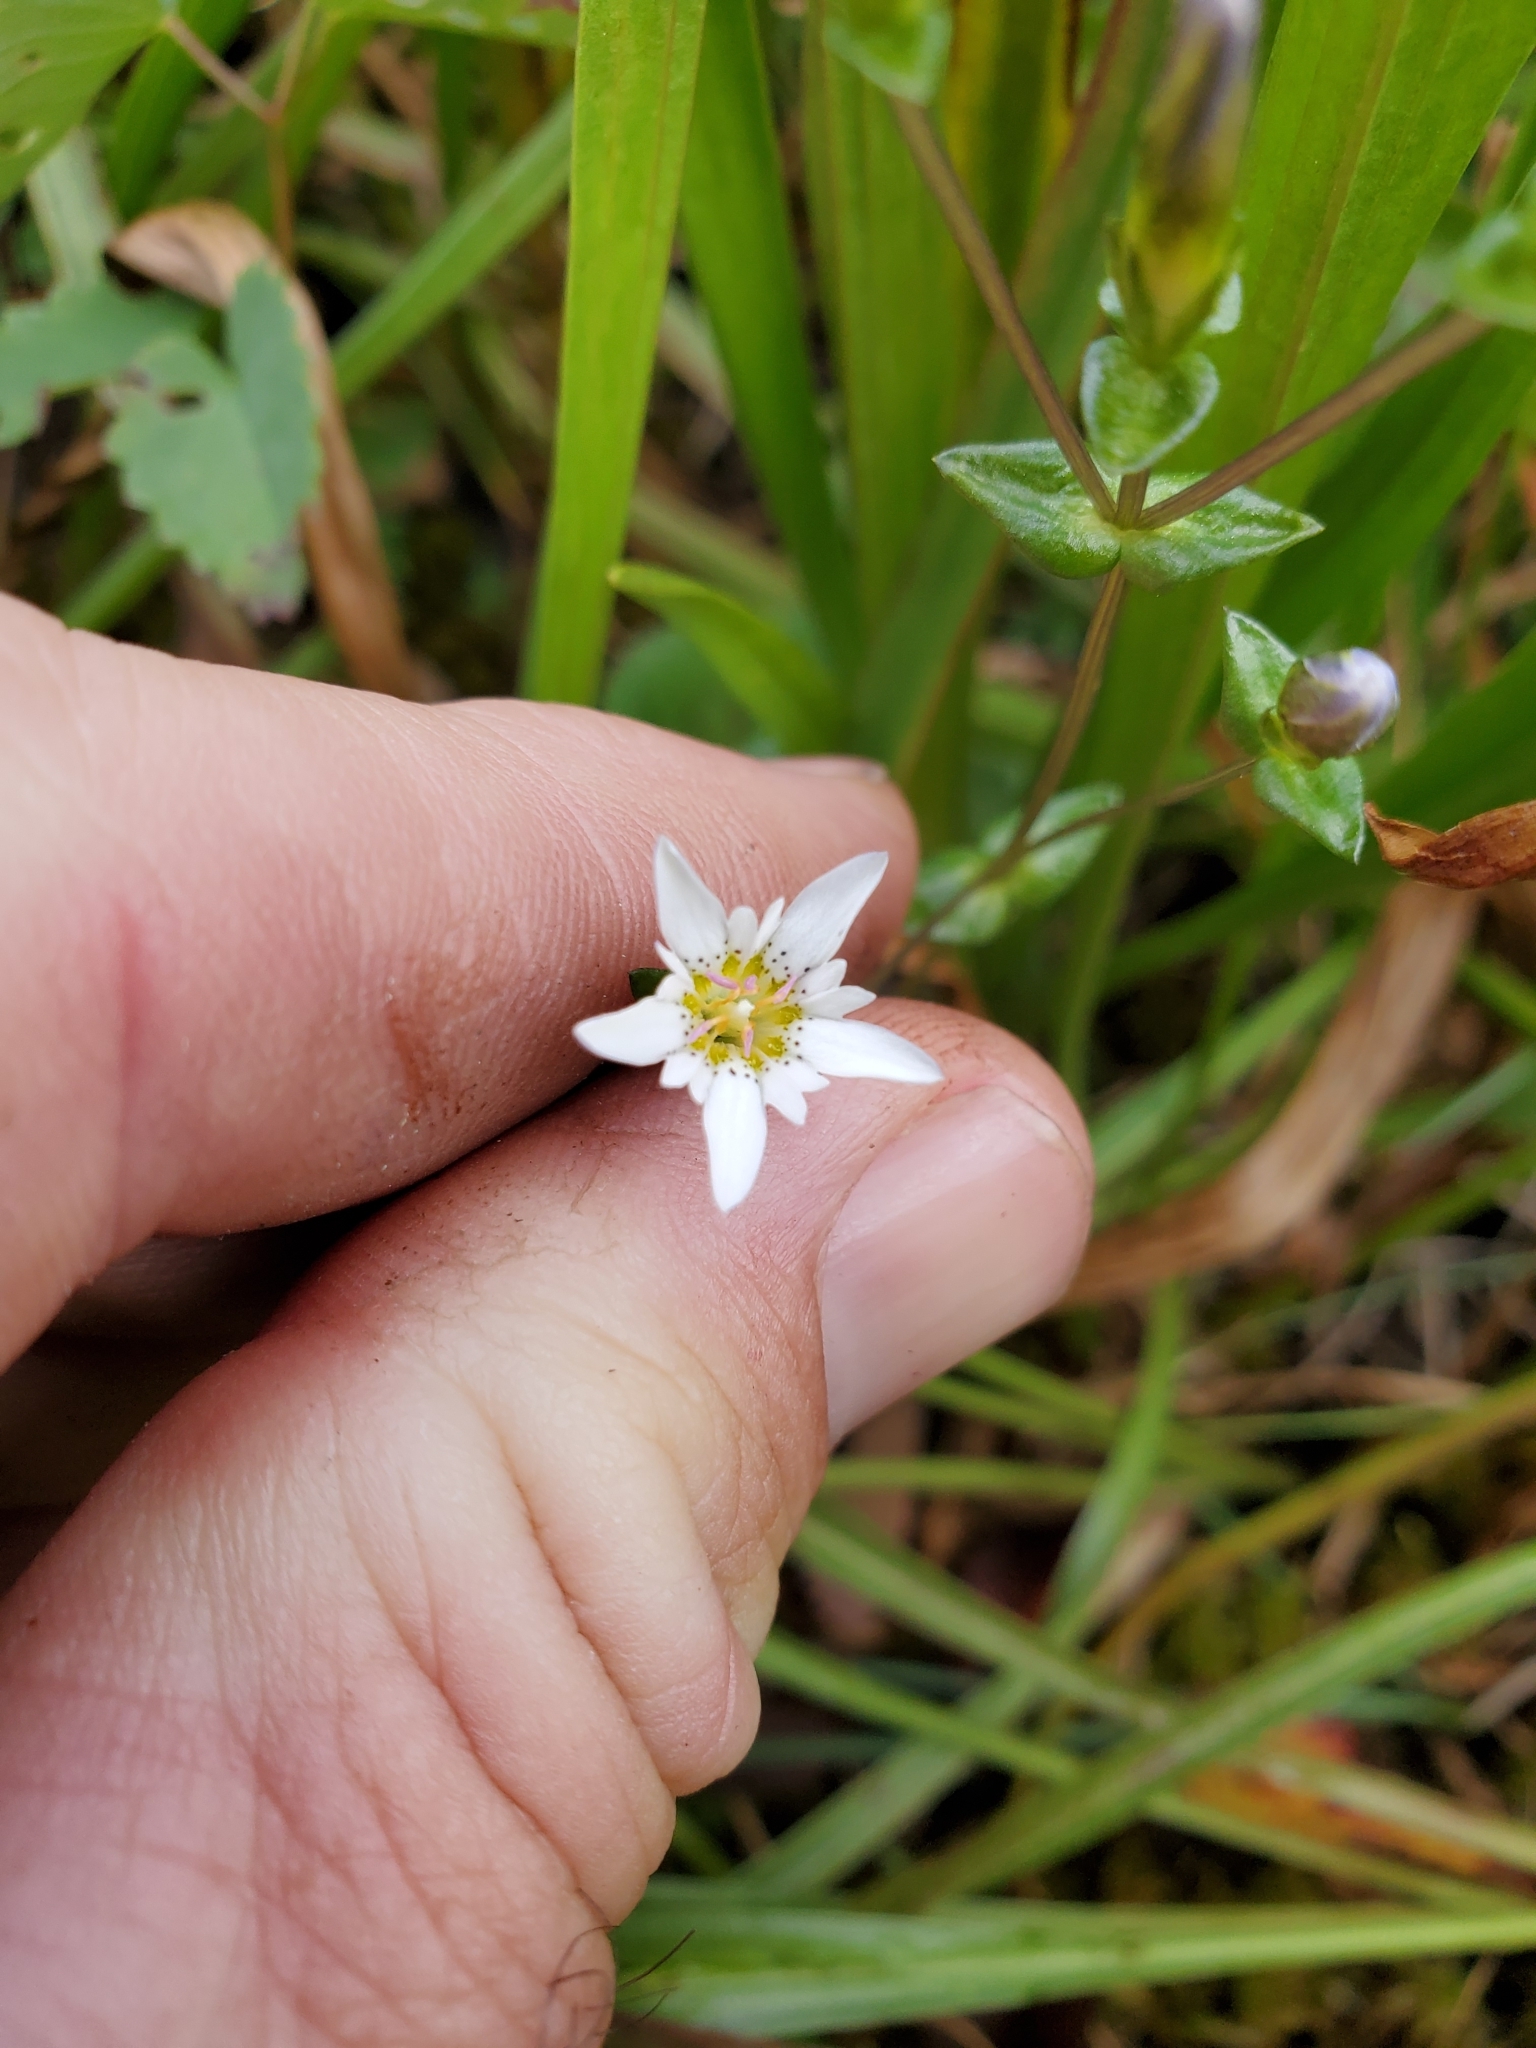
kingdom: Plantae
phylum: Tracheophyta
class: Magnoliopsida
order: Gentianales
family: Gentianaceae
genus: Gentiana
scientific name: Gentiana douglasiana
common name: Swamp gentian
